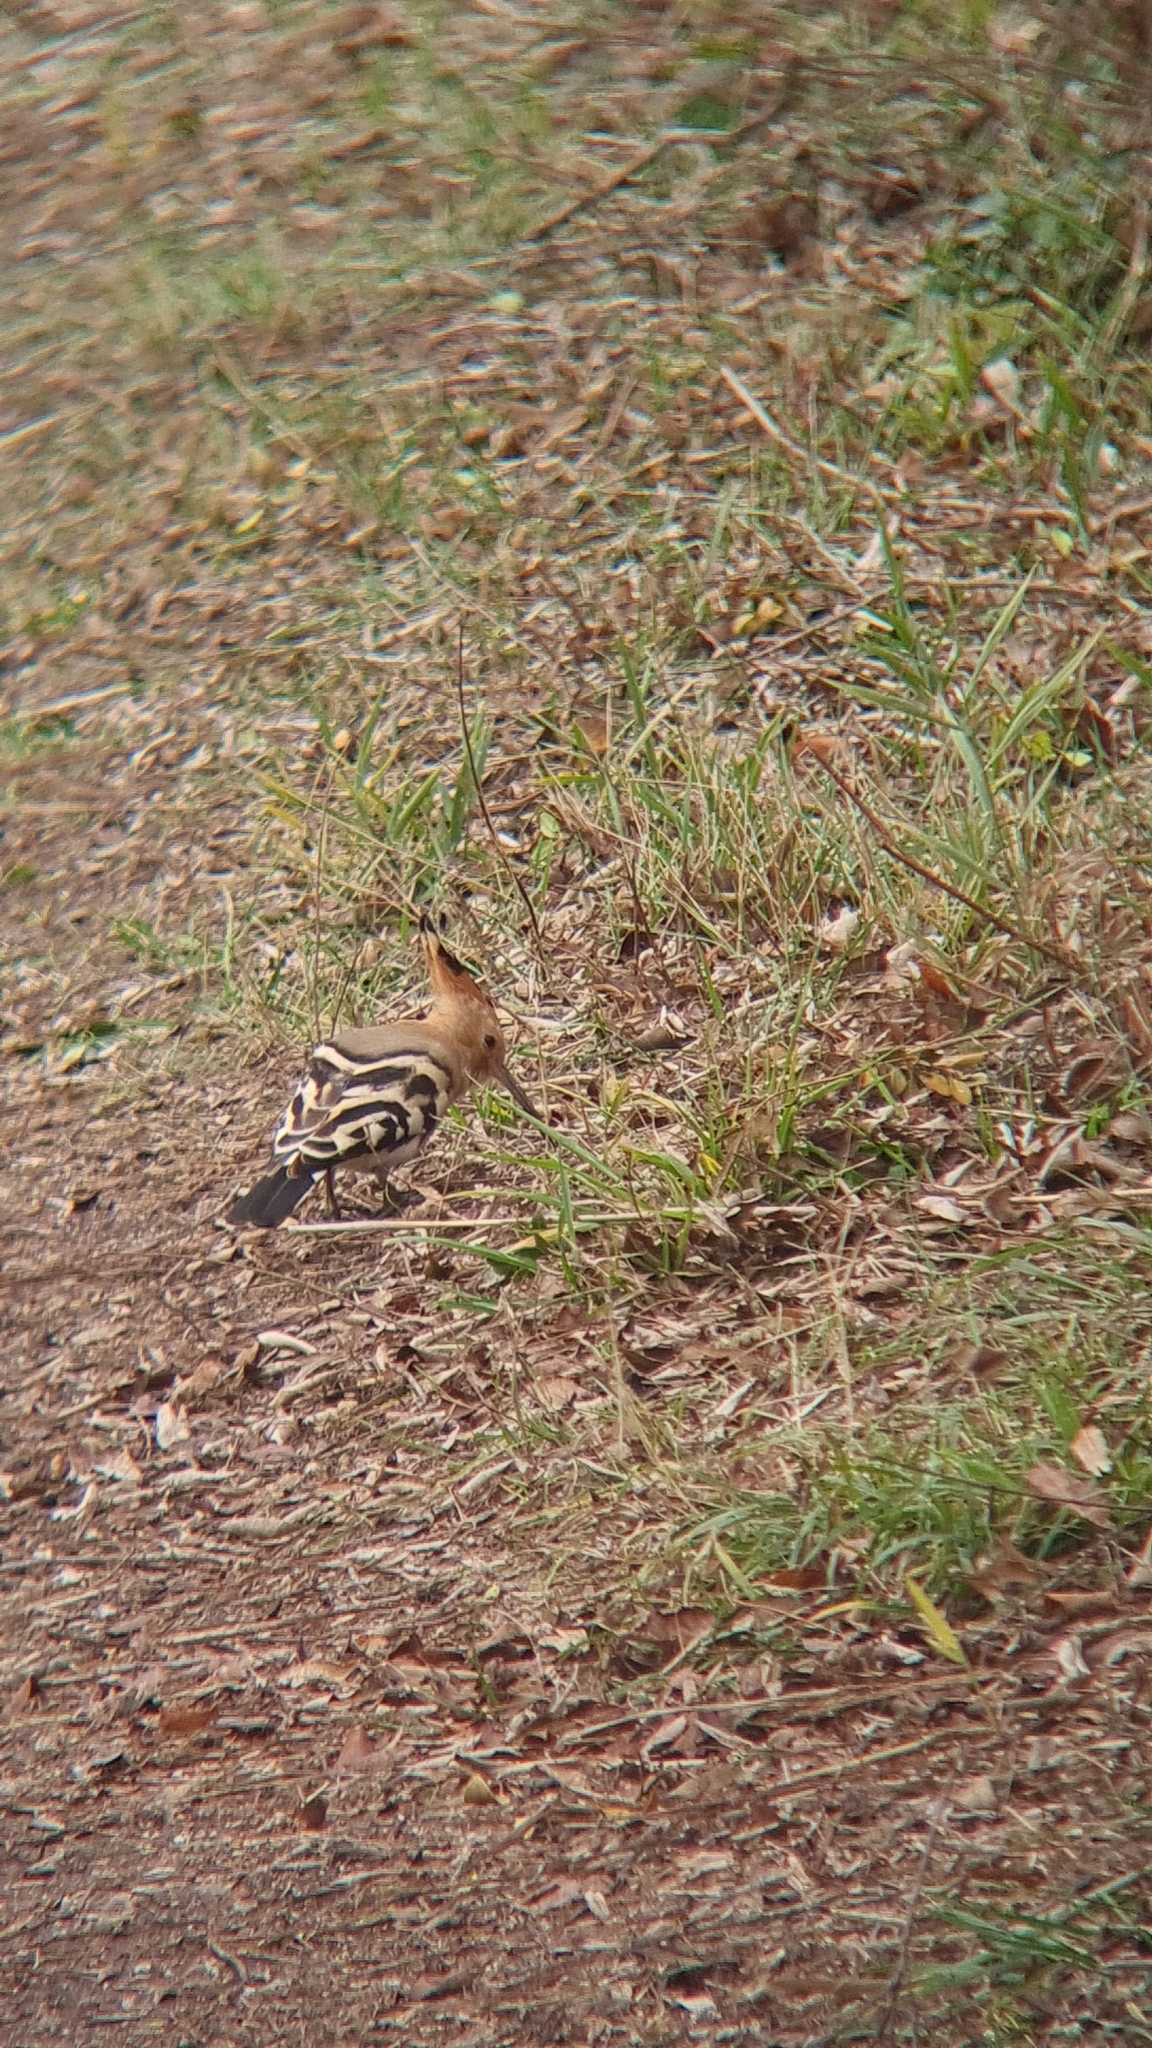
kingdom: Animalia
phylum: Chordata
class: Aves
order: Bucerotiformes
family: Upupidae
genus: Upupa
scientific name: Upupa epops
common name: Eurasian hoopoe
